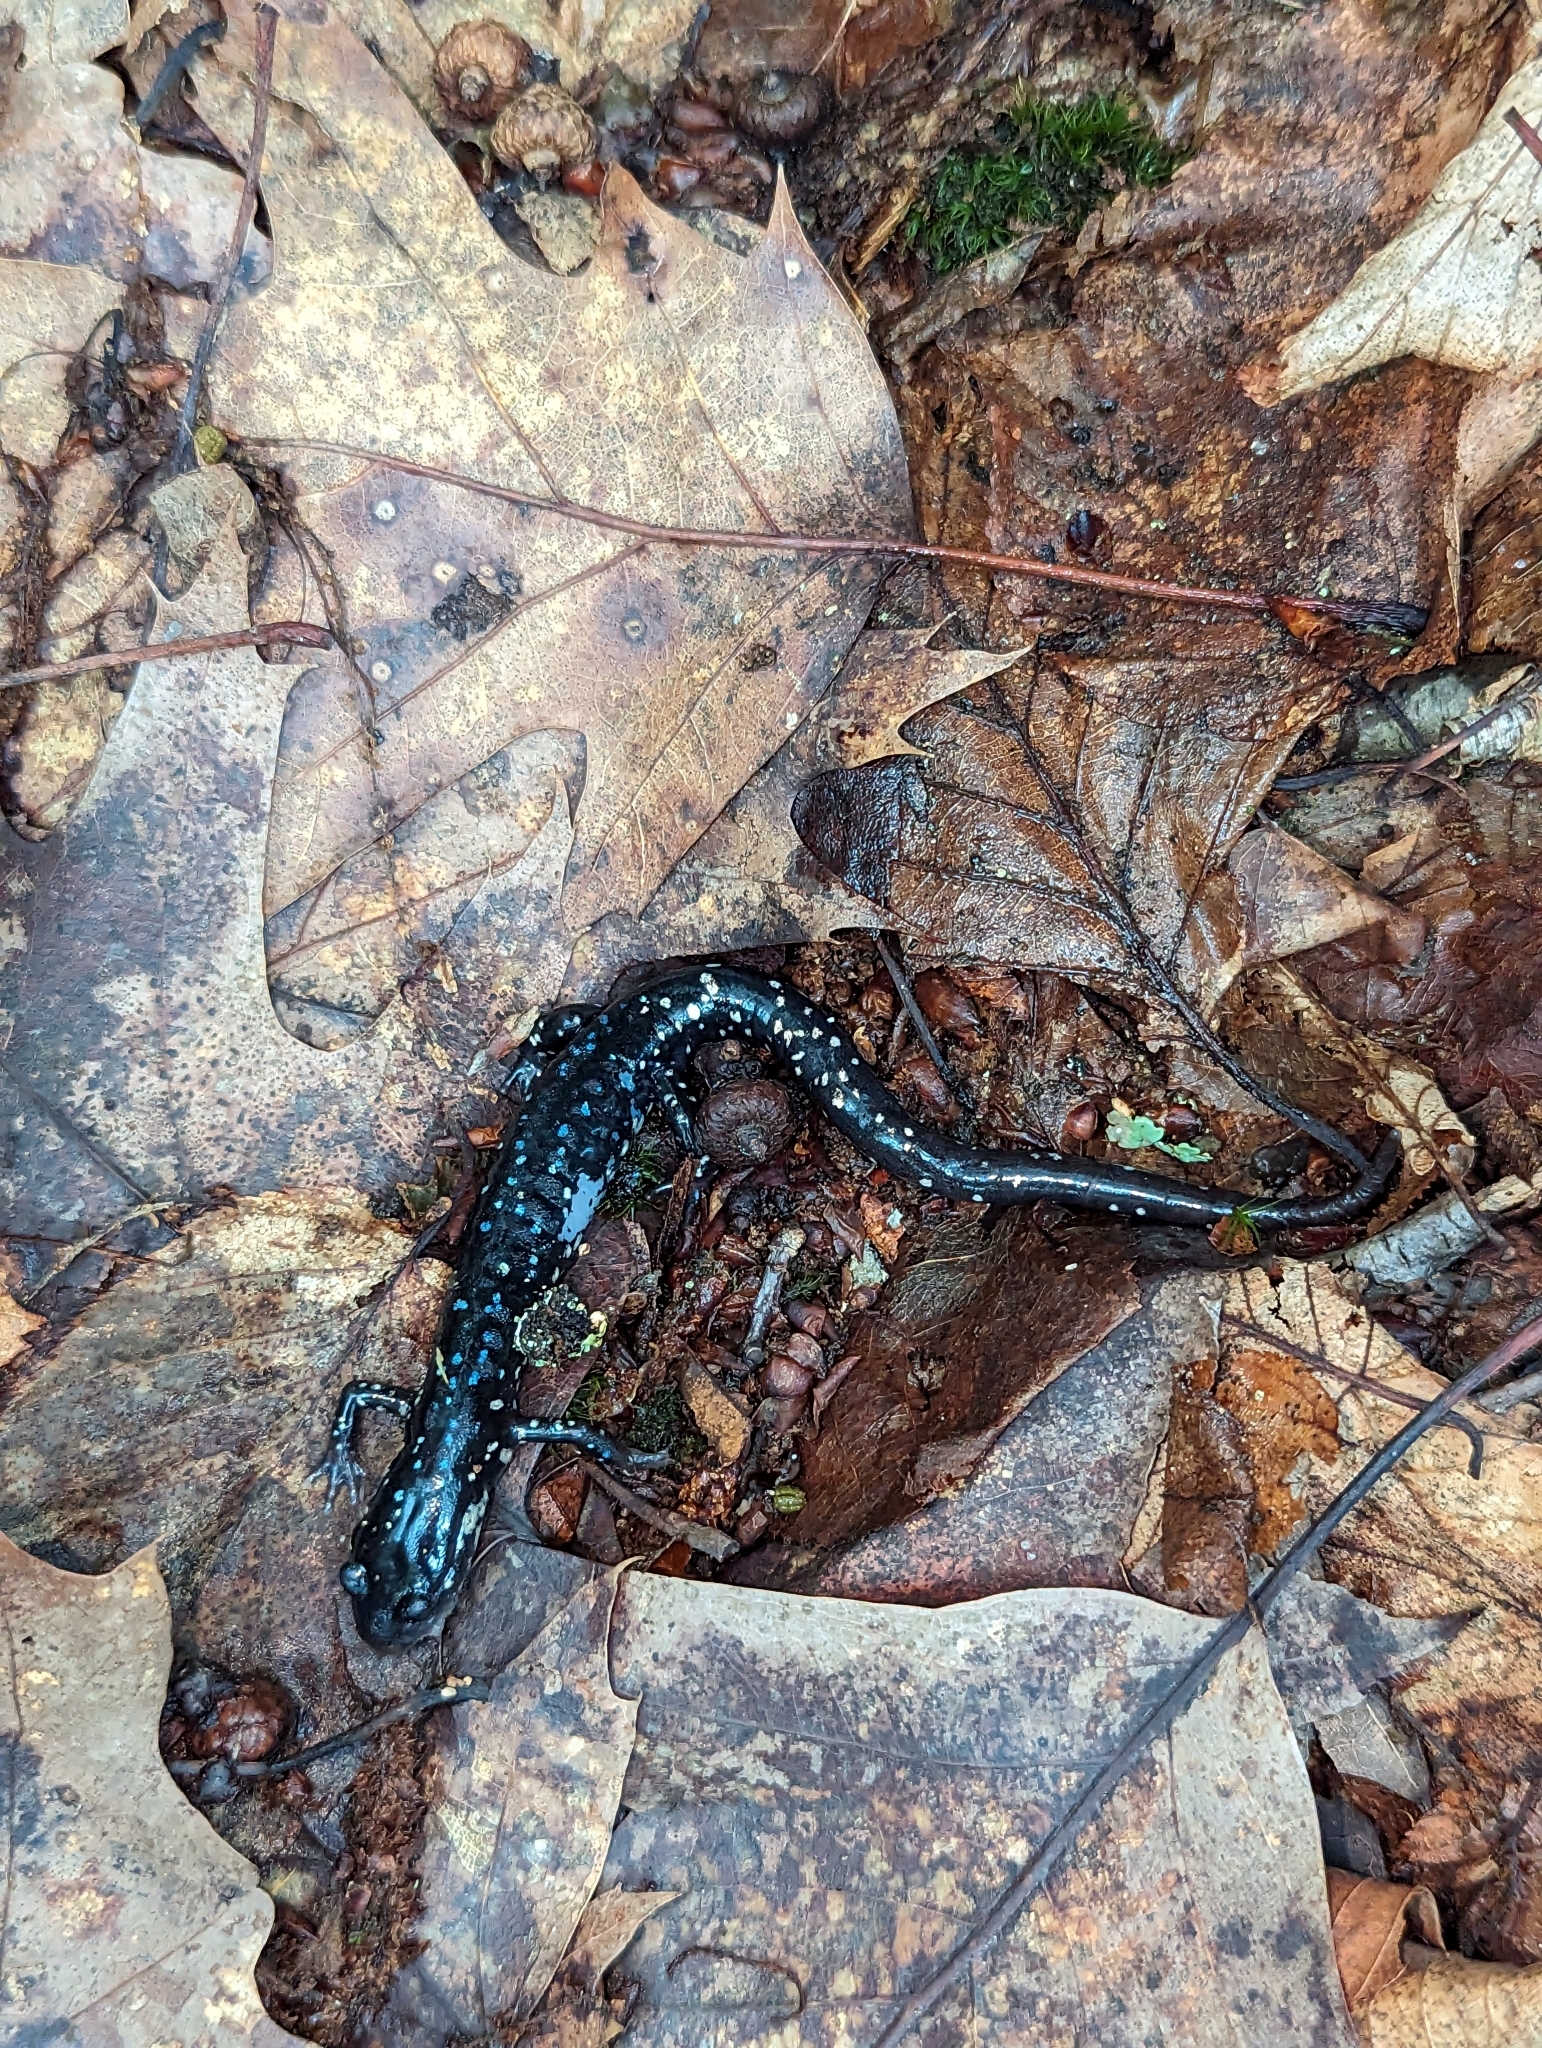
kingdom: Animalia
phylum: Chordata
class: Amphibia
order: Caudata
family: Plethodontidae
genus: Plethodon
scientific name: Plethodon glutinosus
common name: Northern slimy salamander
